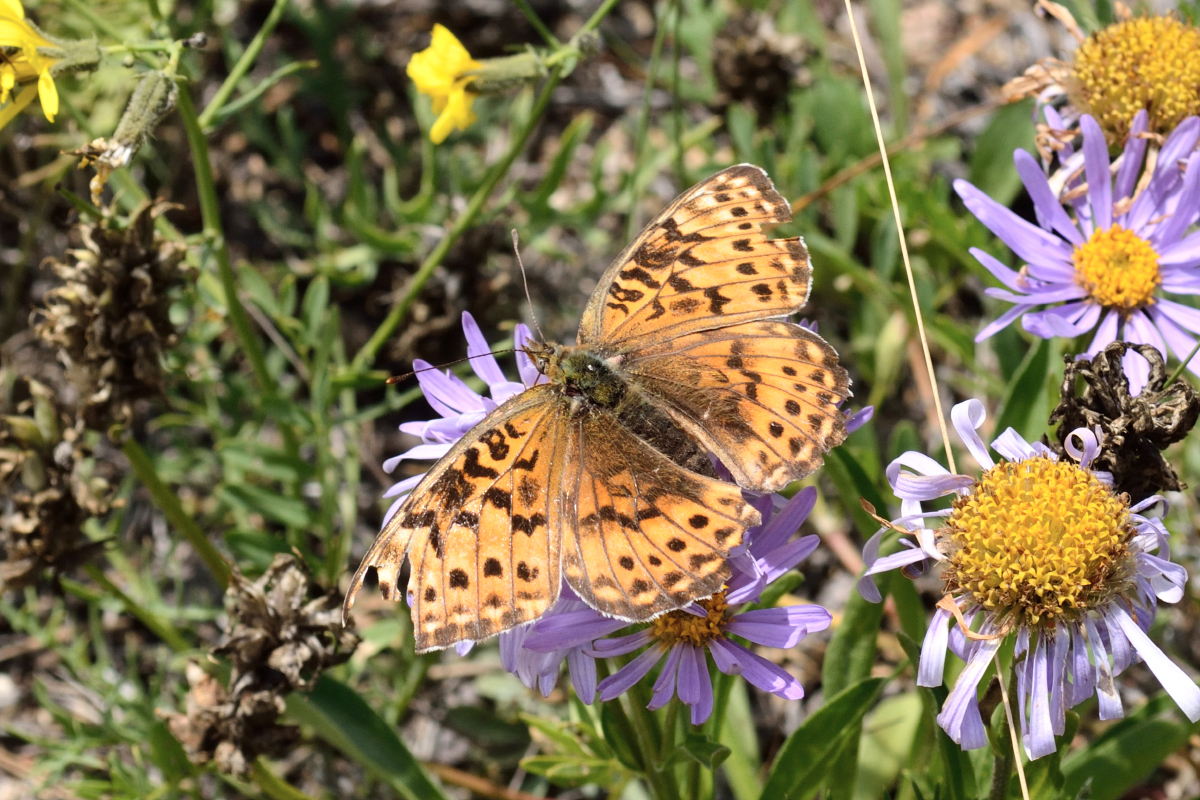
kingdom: Animalia
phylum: Arthropoda
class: Insecta
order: Lepidoptera
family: Nymphalidae
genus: Boloria
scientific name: Boloria tritonia
